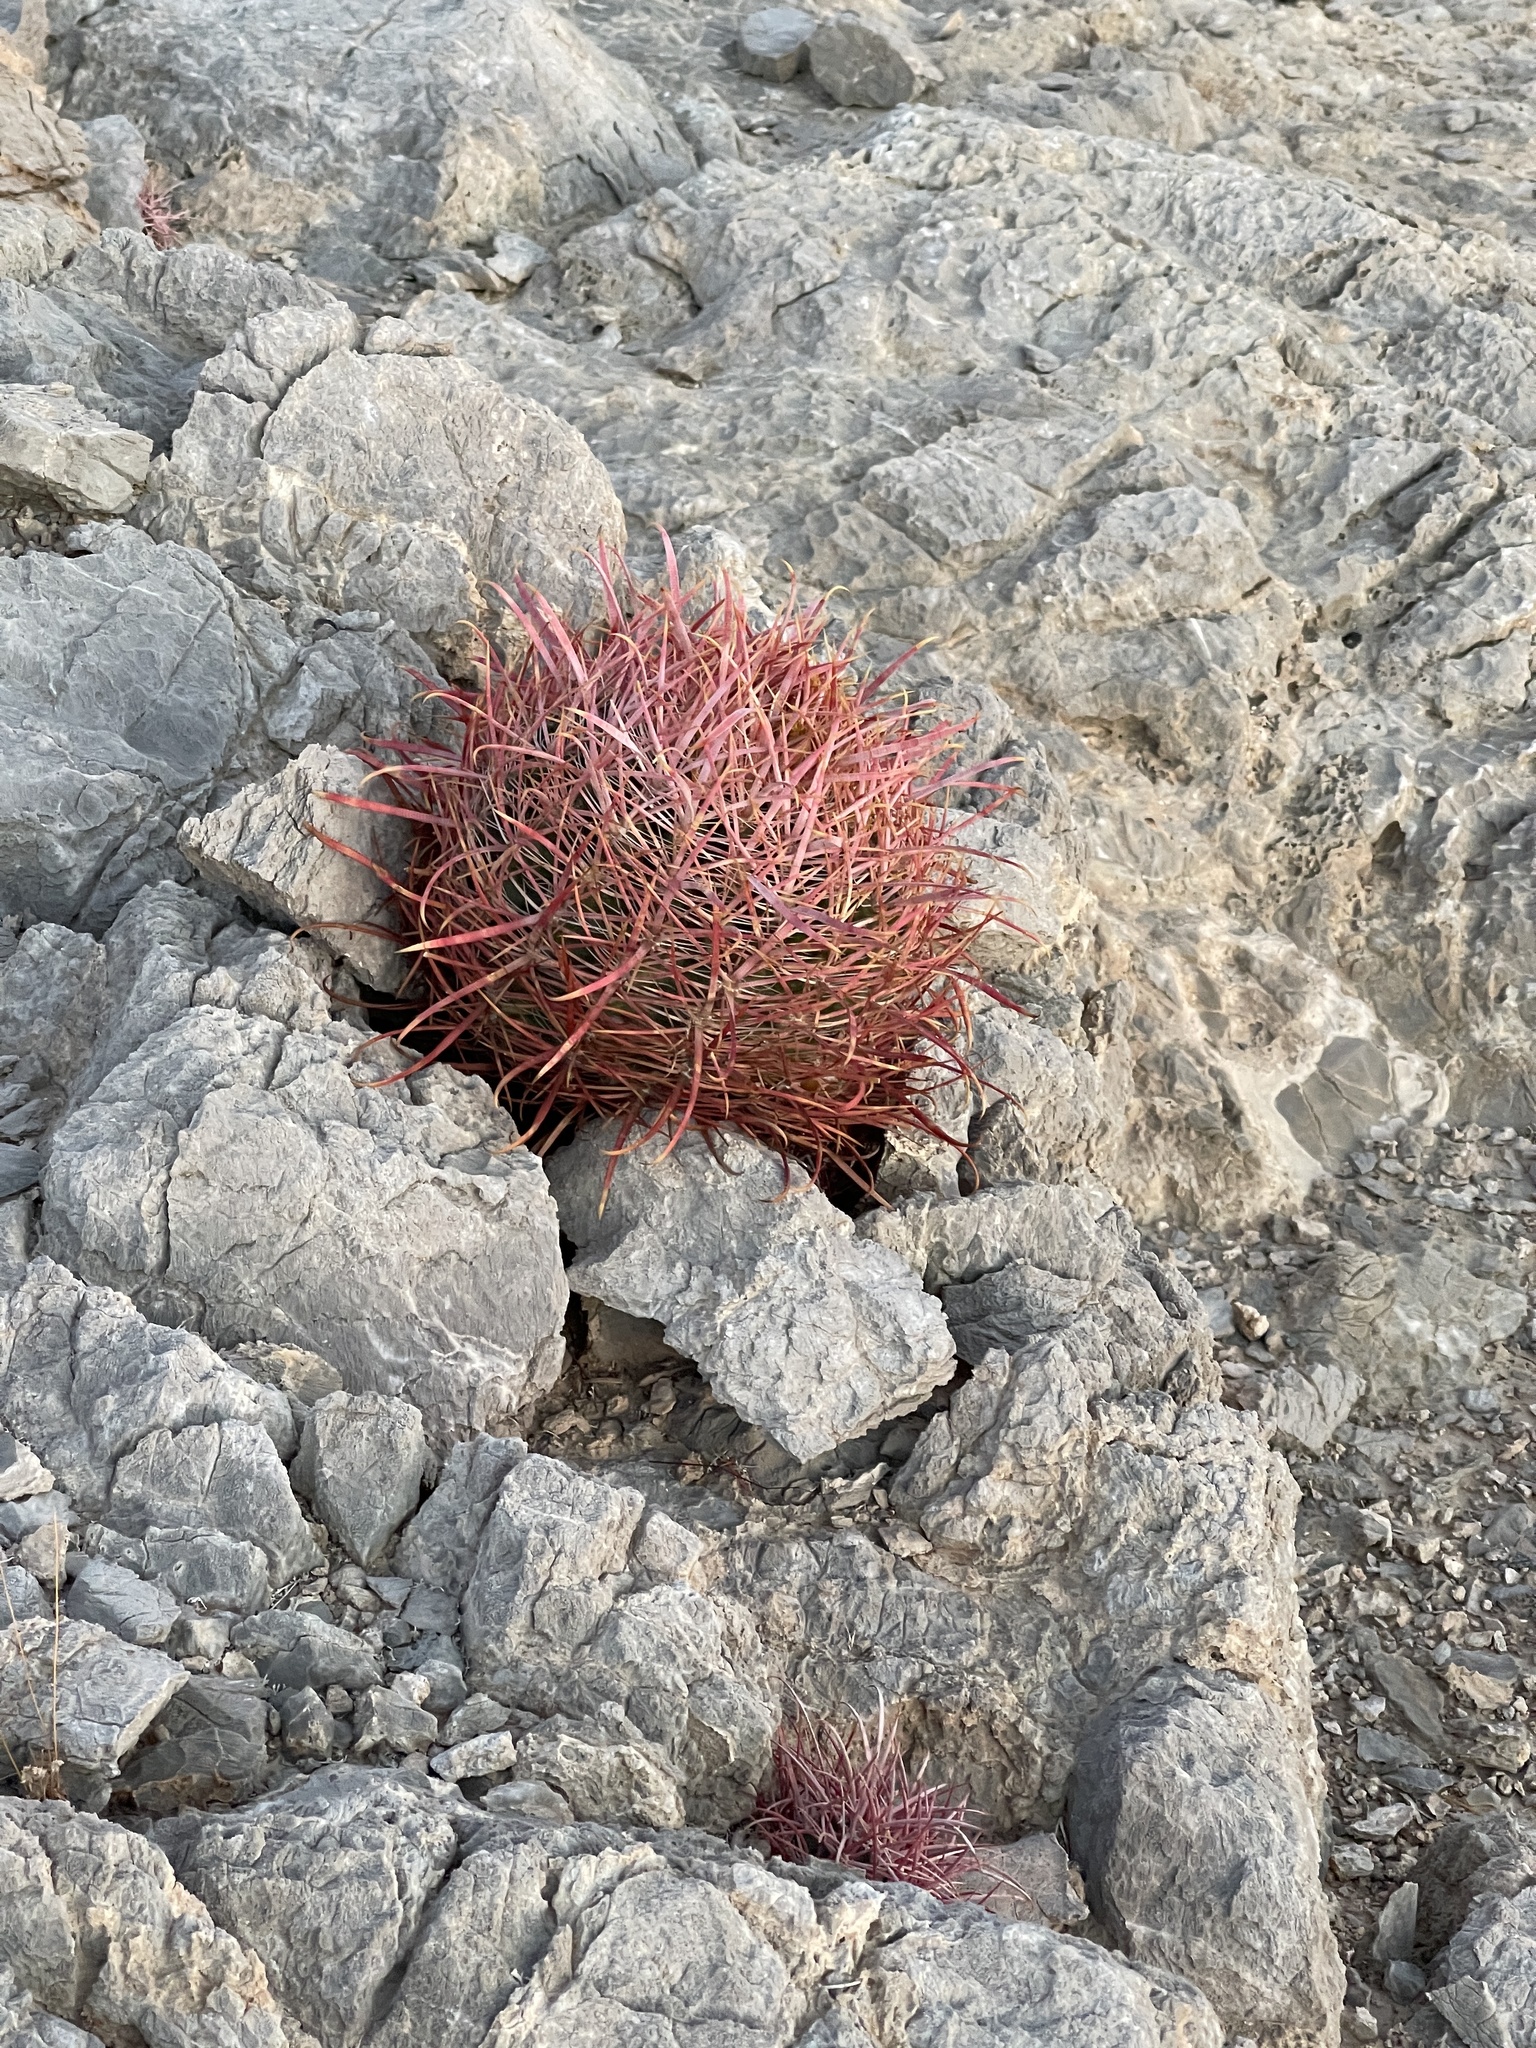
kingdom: Plantae
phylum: Tracheophyta
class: Magnoliopsida
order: Caryophyllales
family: Cactaceae
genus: Ferocactus
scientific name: Ferocactus cylindraceus
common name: California barrel cactus
